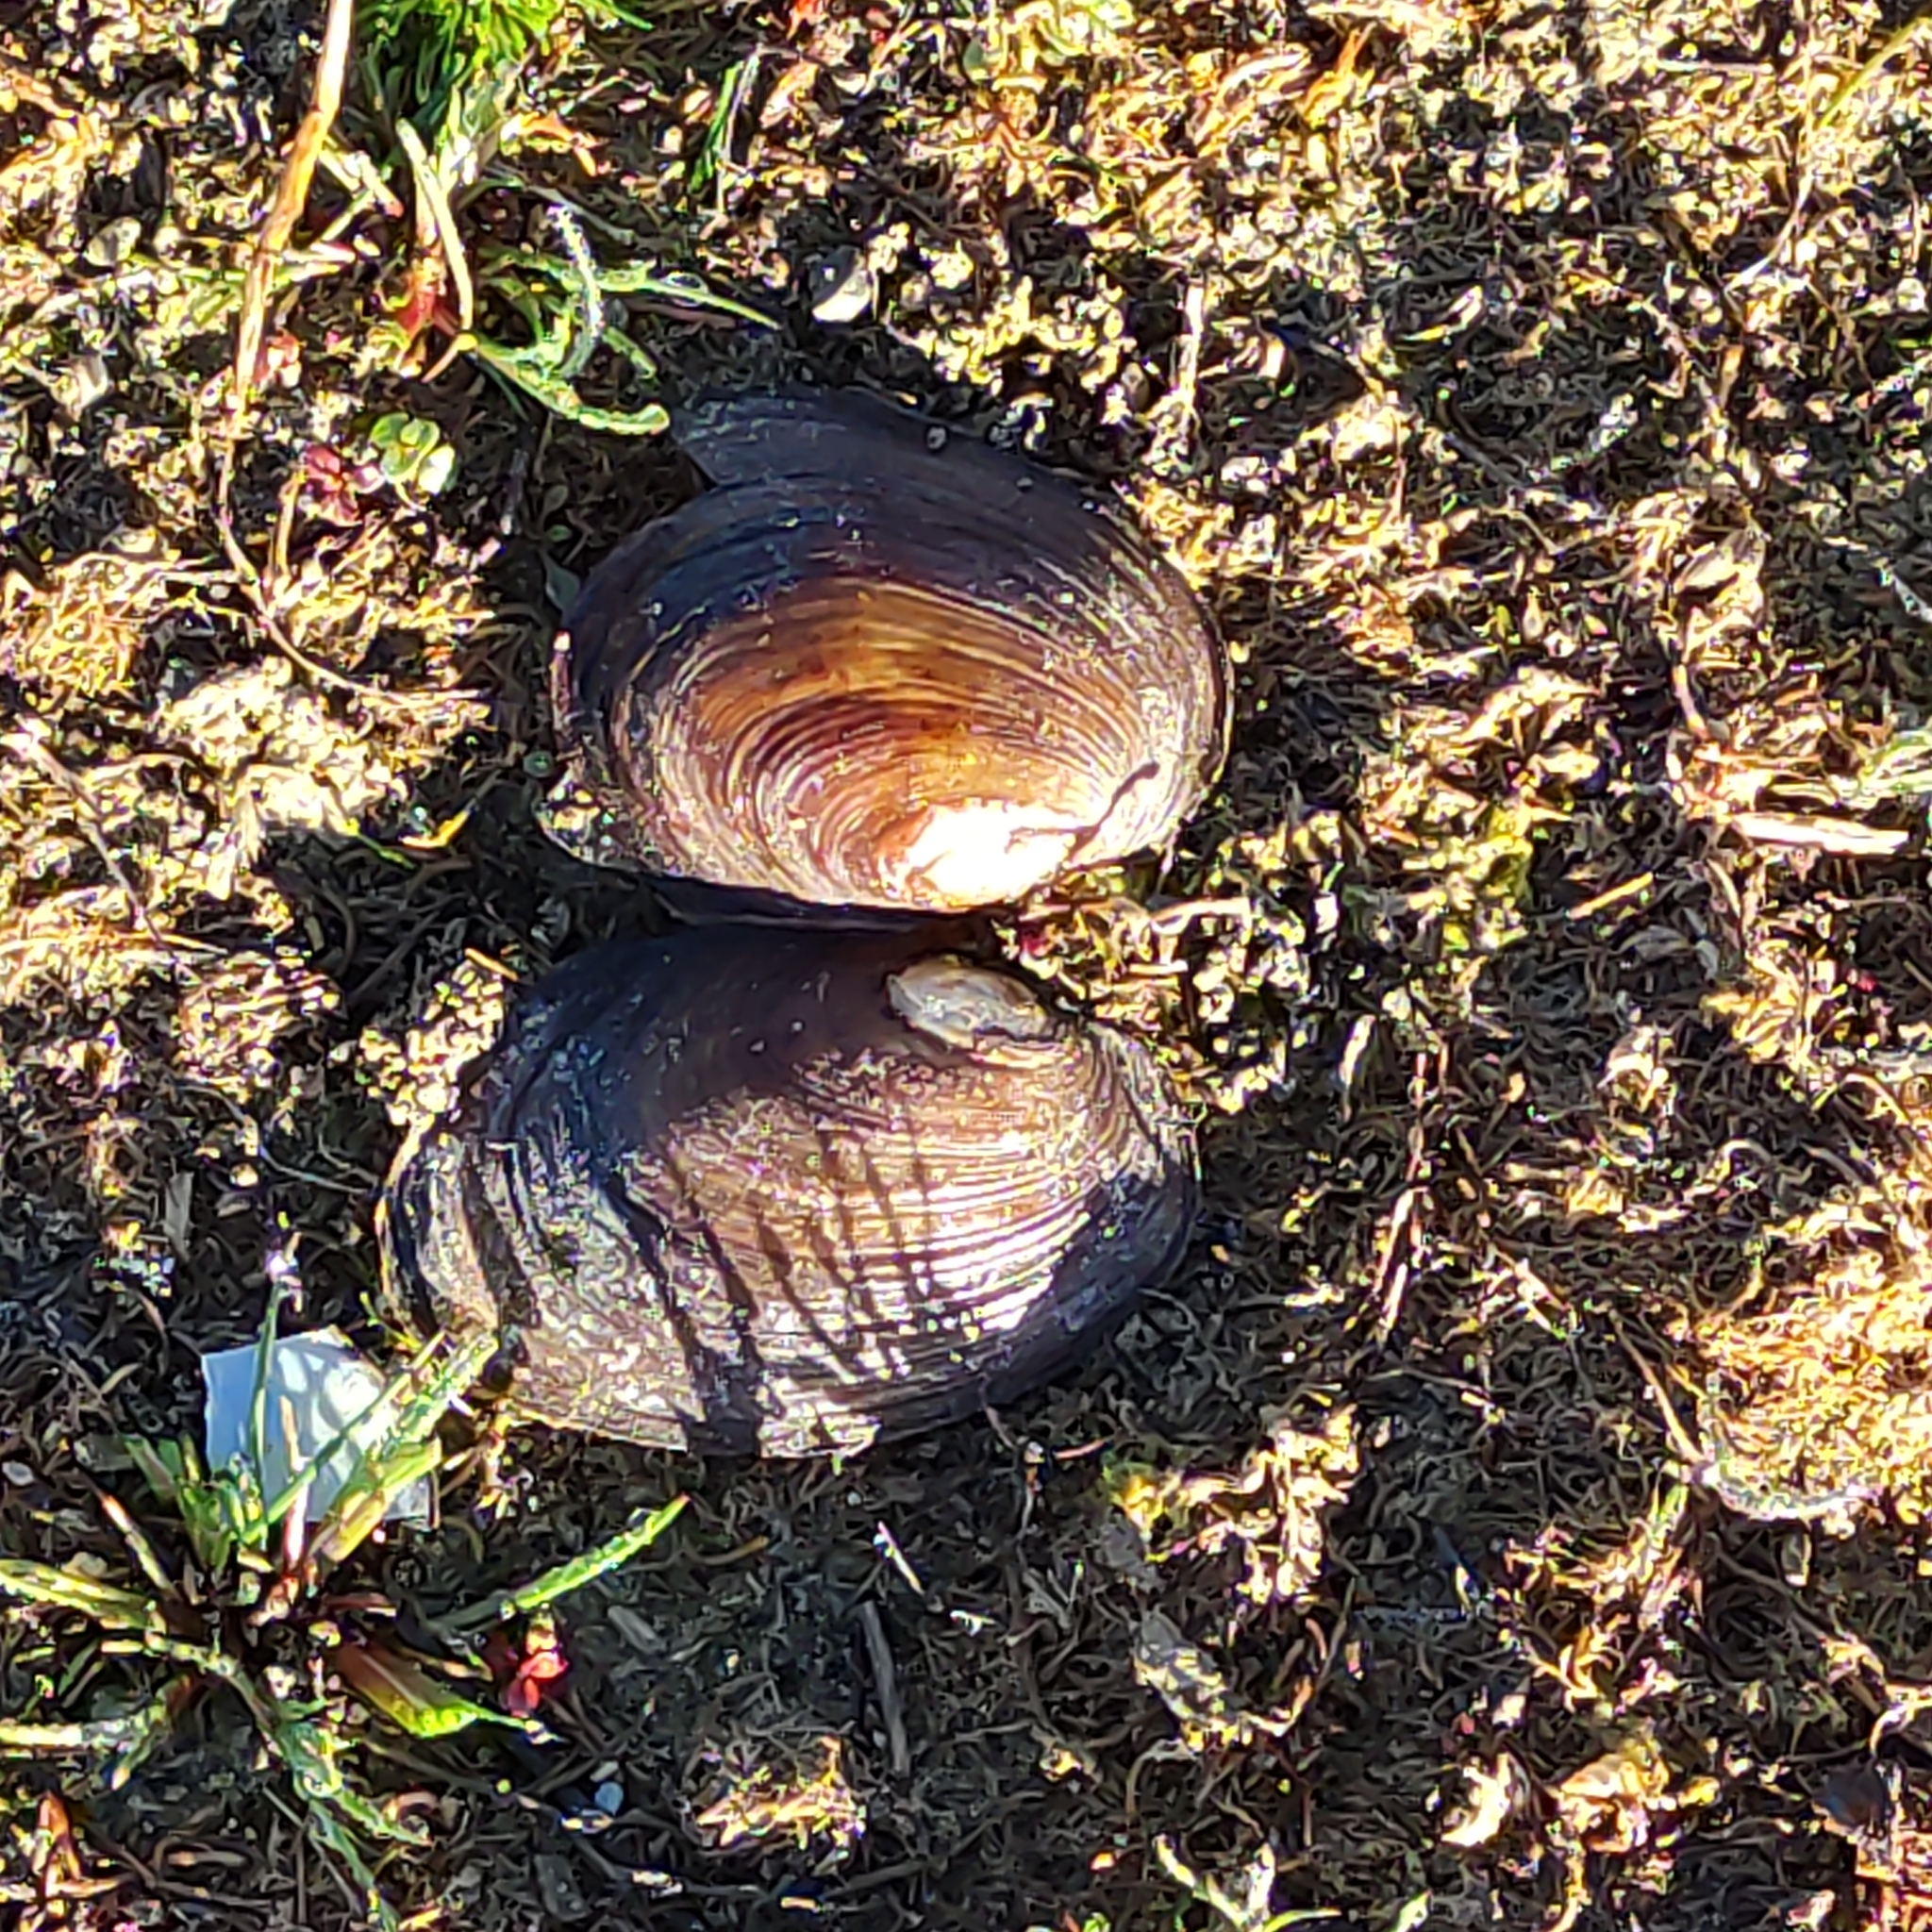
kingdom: Animalia
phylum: Mollusca
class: Bivalvia
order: Unionida
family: Hyriidae
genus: Echyridella
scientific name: Echyridella menziesii
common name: New zealand freshwater mussel
